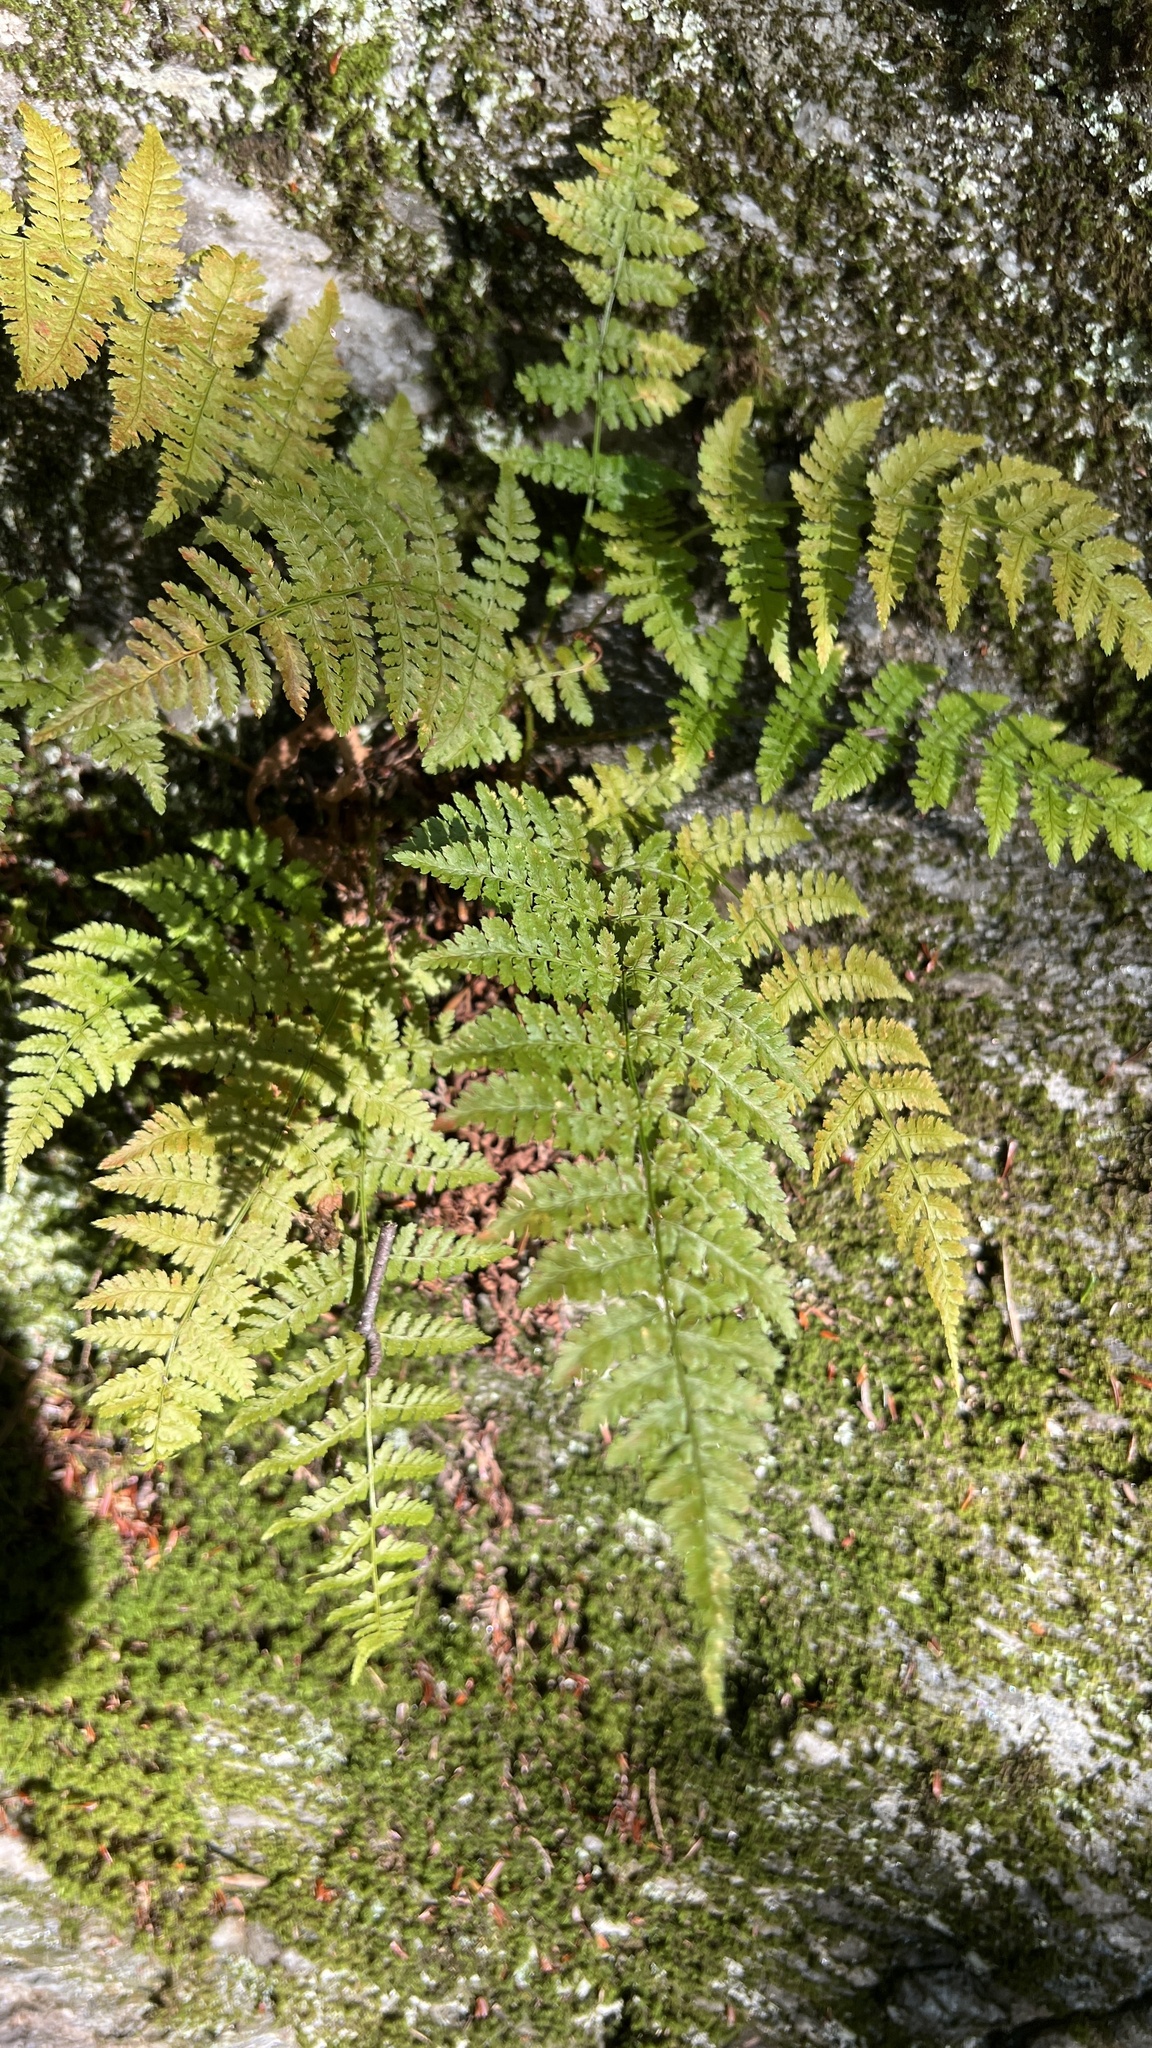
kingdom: Plantae
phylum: Tracheophyta
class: Polypodiopsida
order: Polypodiales
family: Dryopteridaceae
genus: Dryopteris
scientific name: Dryopteris intermedia
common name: Evergreen wood fern
